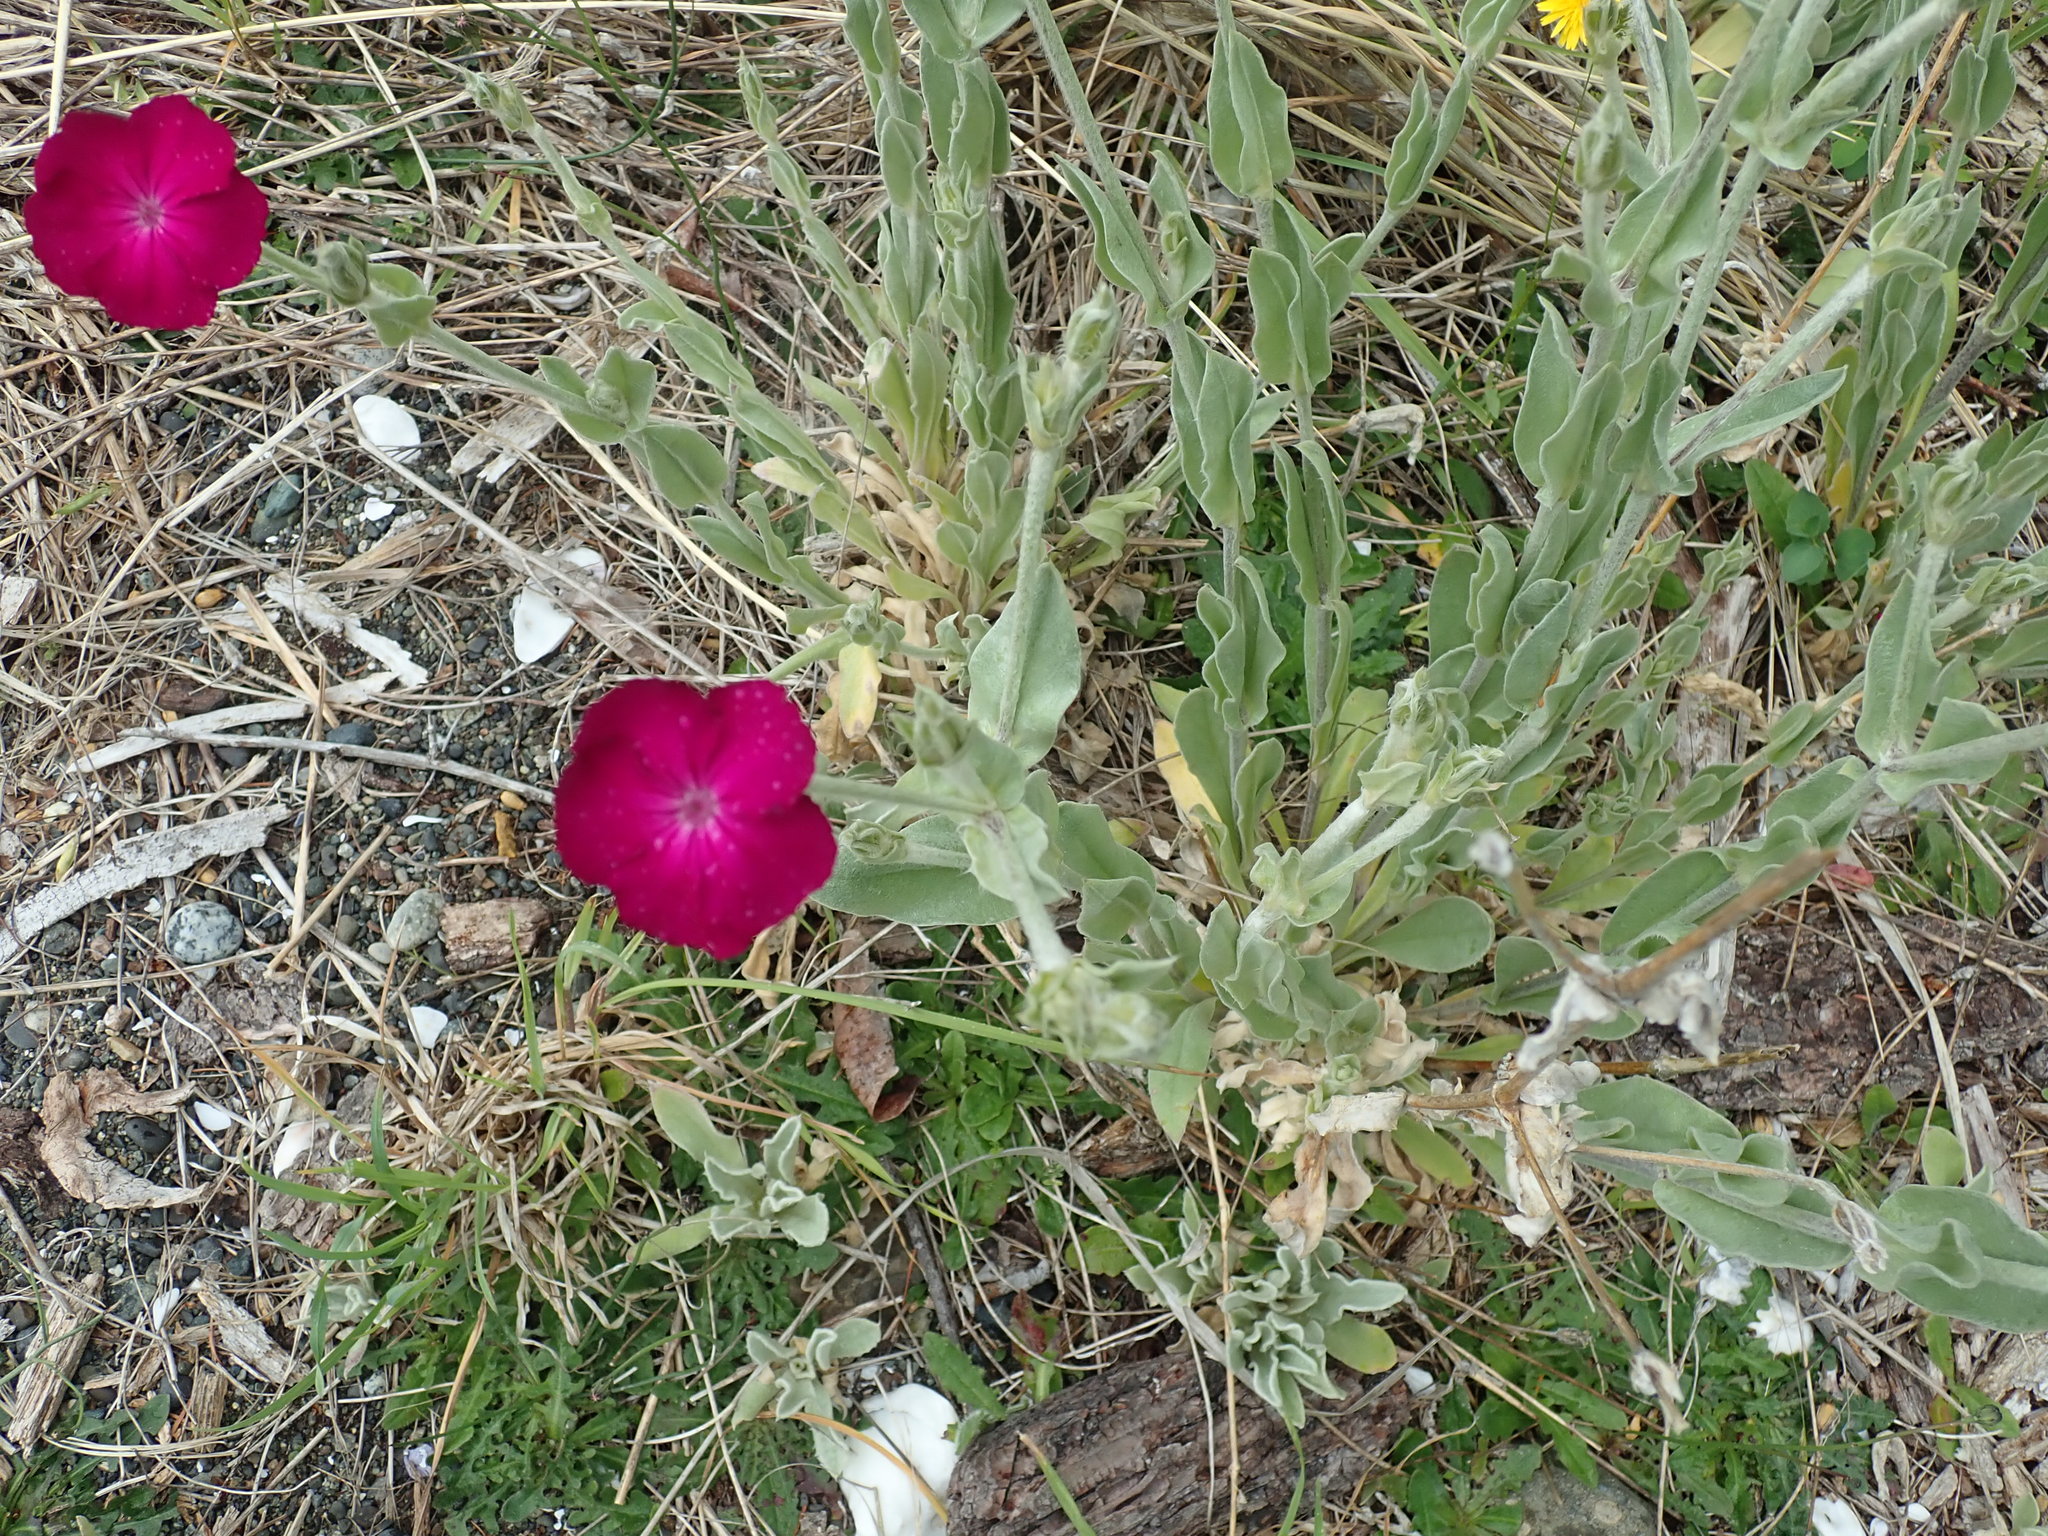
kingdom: Plantae
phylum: Tracheophyta
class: Magnoliopsida
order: Caryophyllales
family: Caryophyllaceae
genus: Silene
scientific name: Silene coronaria
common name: Rose campion
